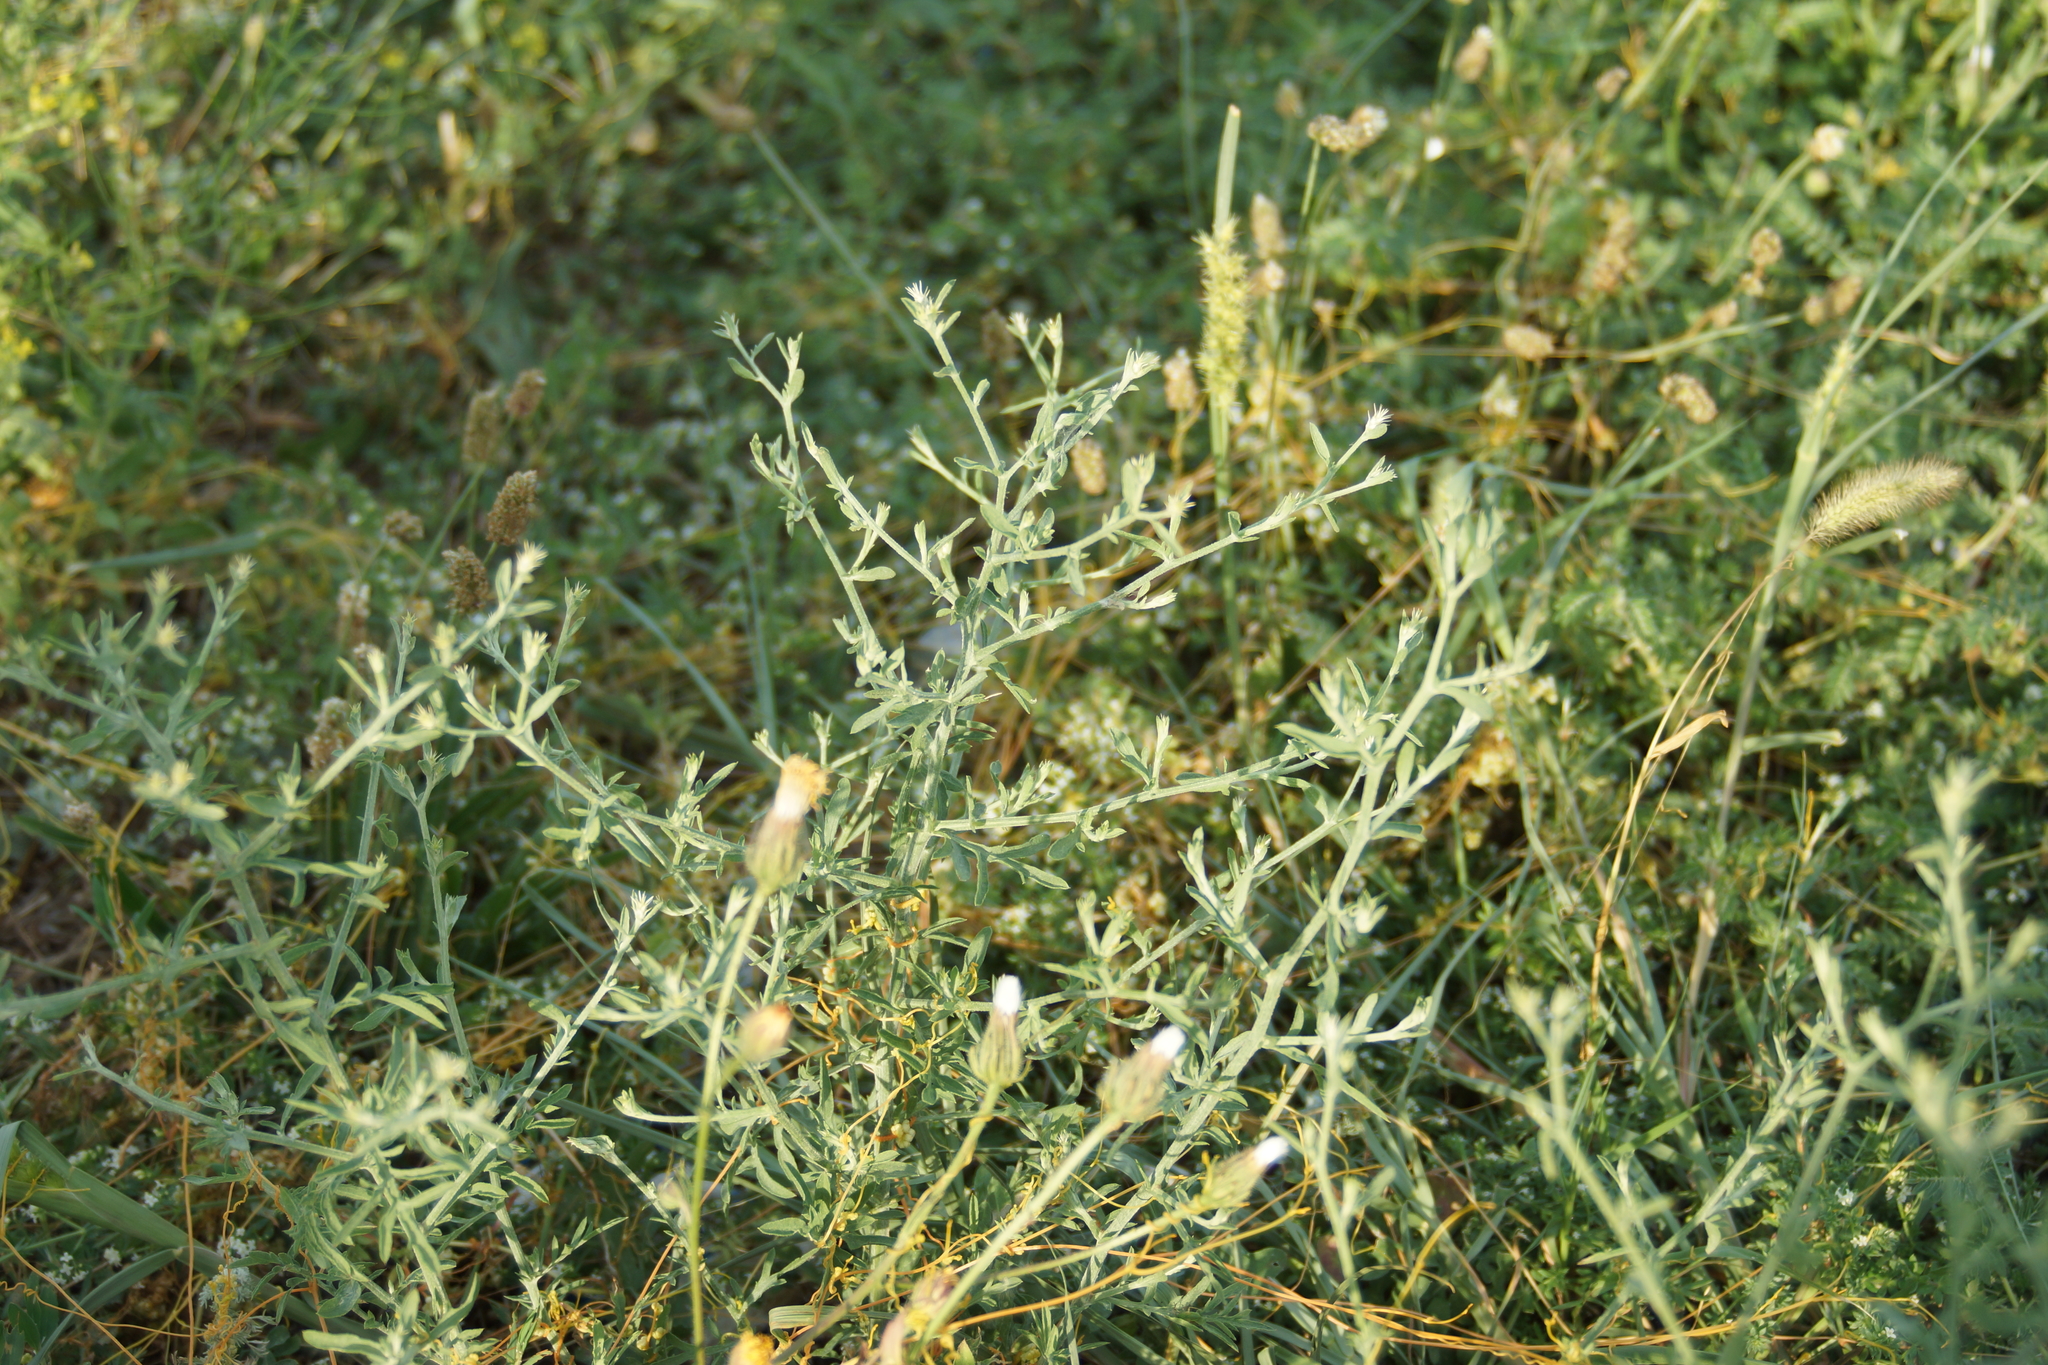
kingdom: Plantae
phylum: Tracheophyta
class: Magnoliopsida
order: Asterales
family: Asteraceae
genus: Centaurea
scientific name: Centaurea diffusa
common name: Diffuse knapweed
